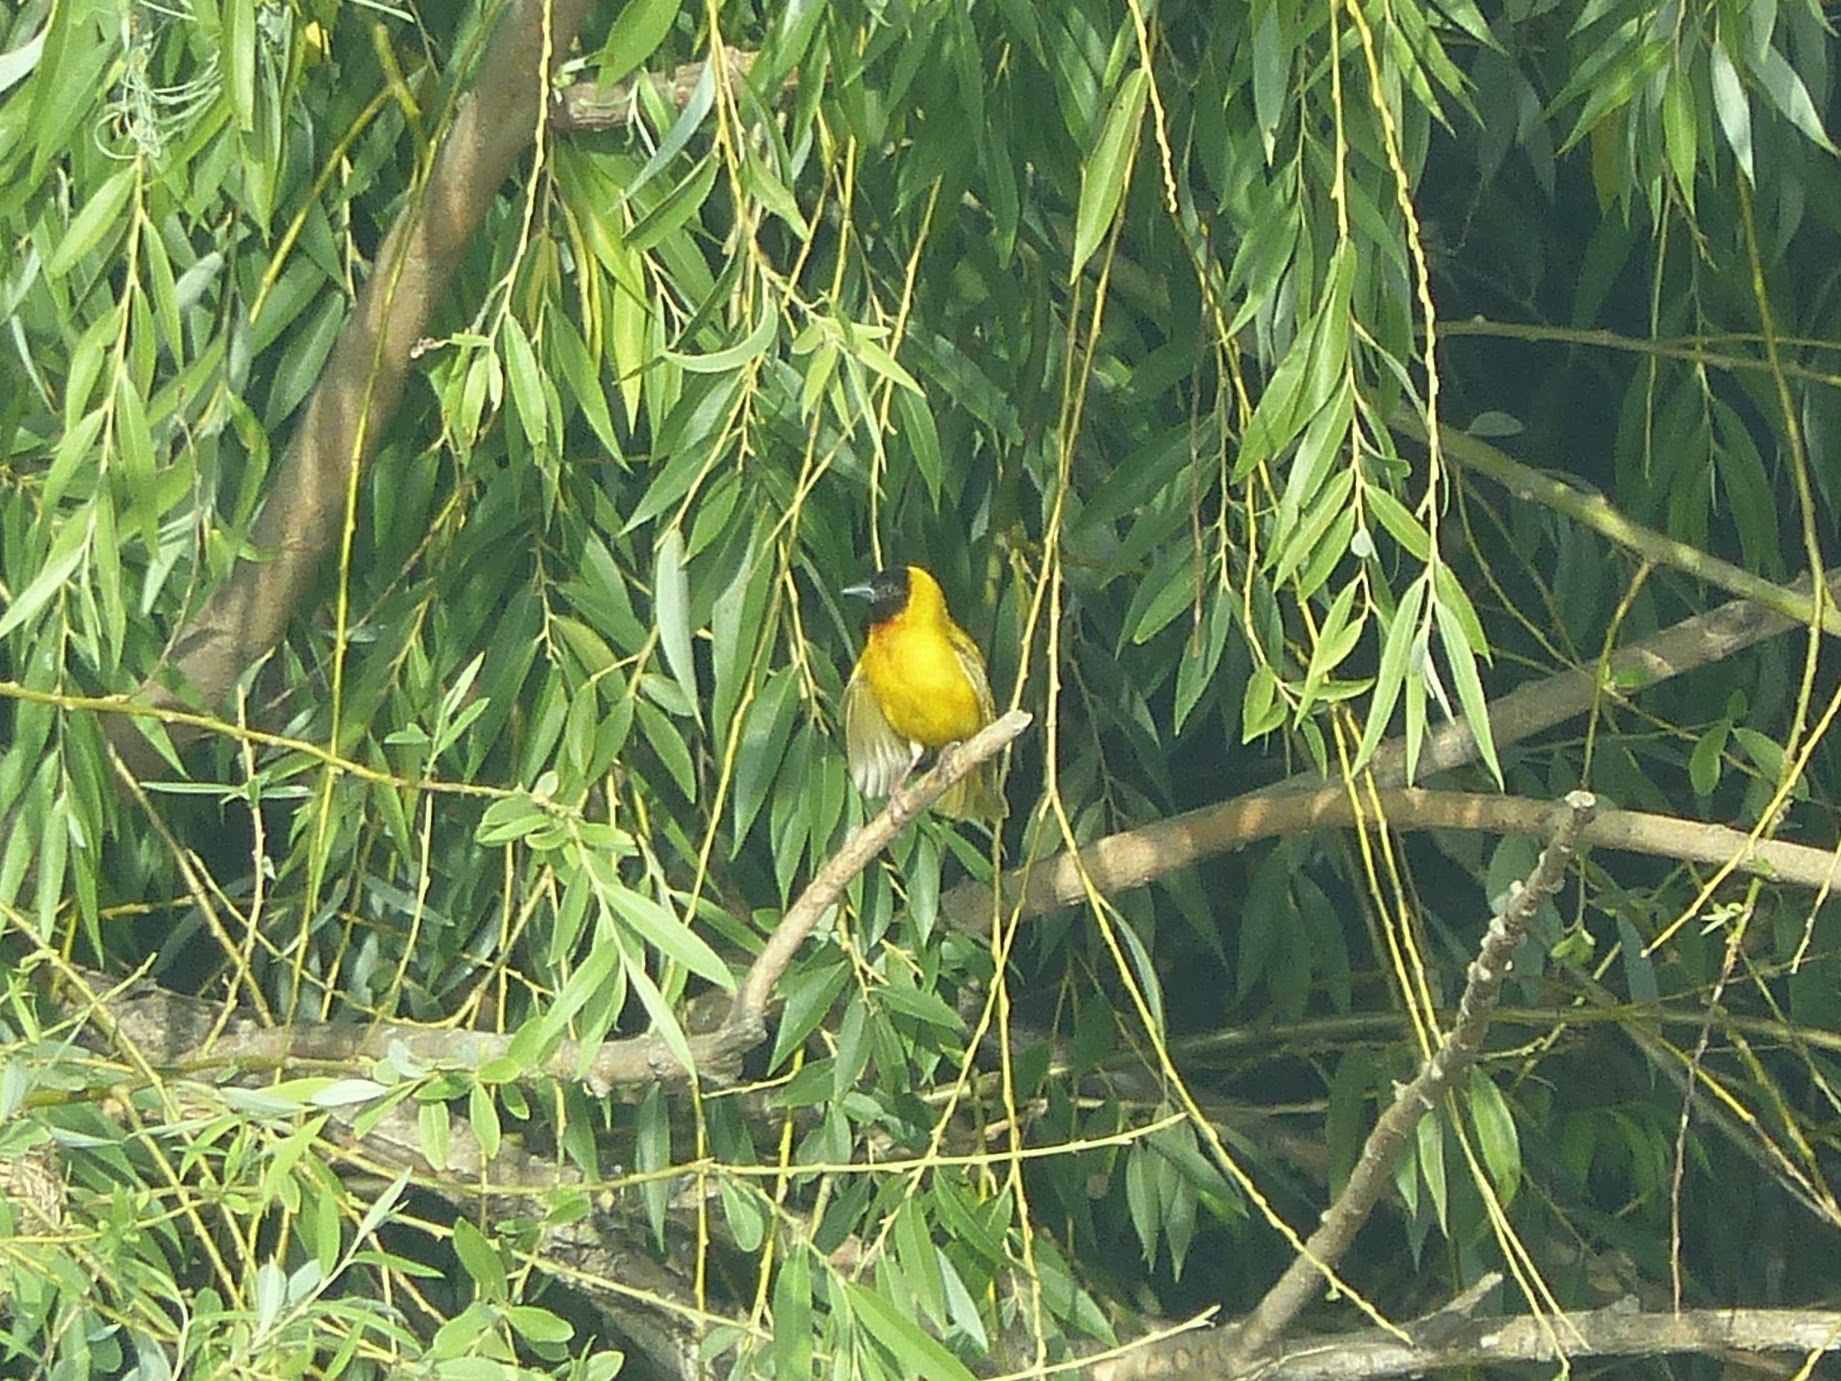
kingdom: Animalia
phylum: Chordata
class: Aves
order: Passeriformes
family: Ploceidae
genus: Ploceus
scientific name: Ploceus melanocephalus
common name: Black-headed weaver
